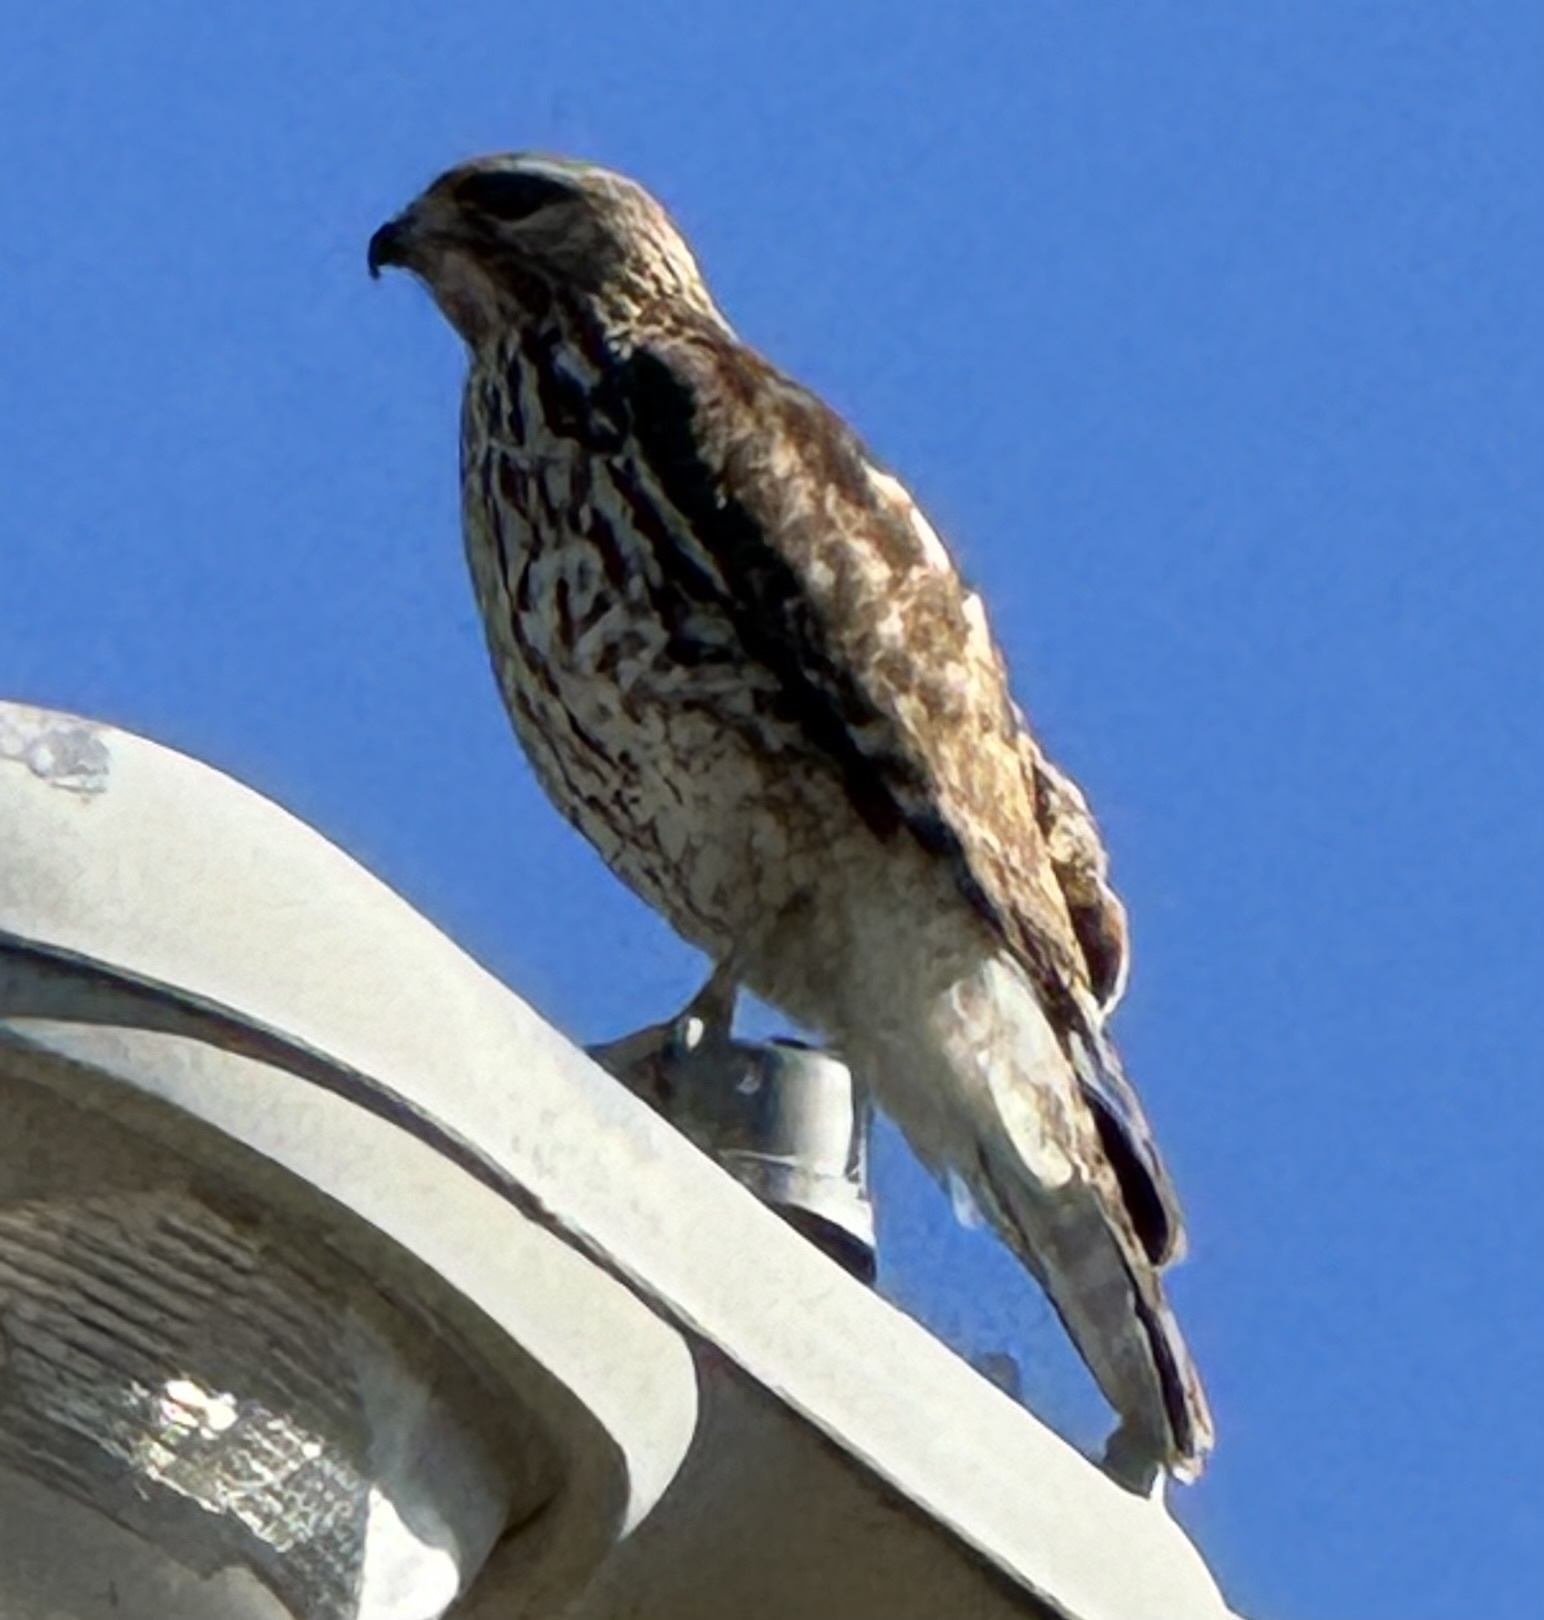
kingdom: Animalia
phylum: Chordata
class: Aves
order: Accipitriformes
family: Accipitridae
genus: Buteo
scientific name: Buteo lineatus
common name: Red-shouldered hawk
